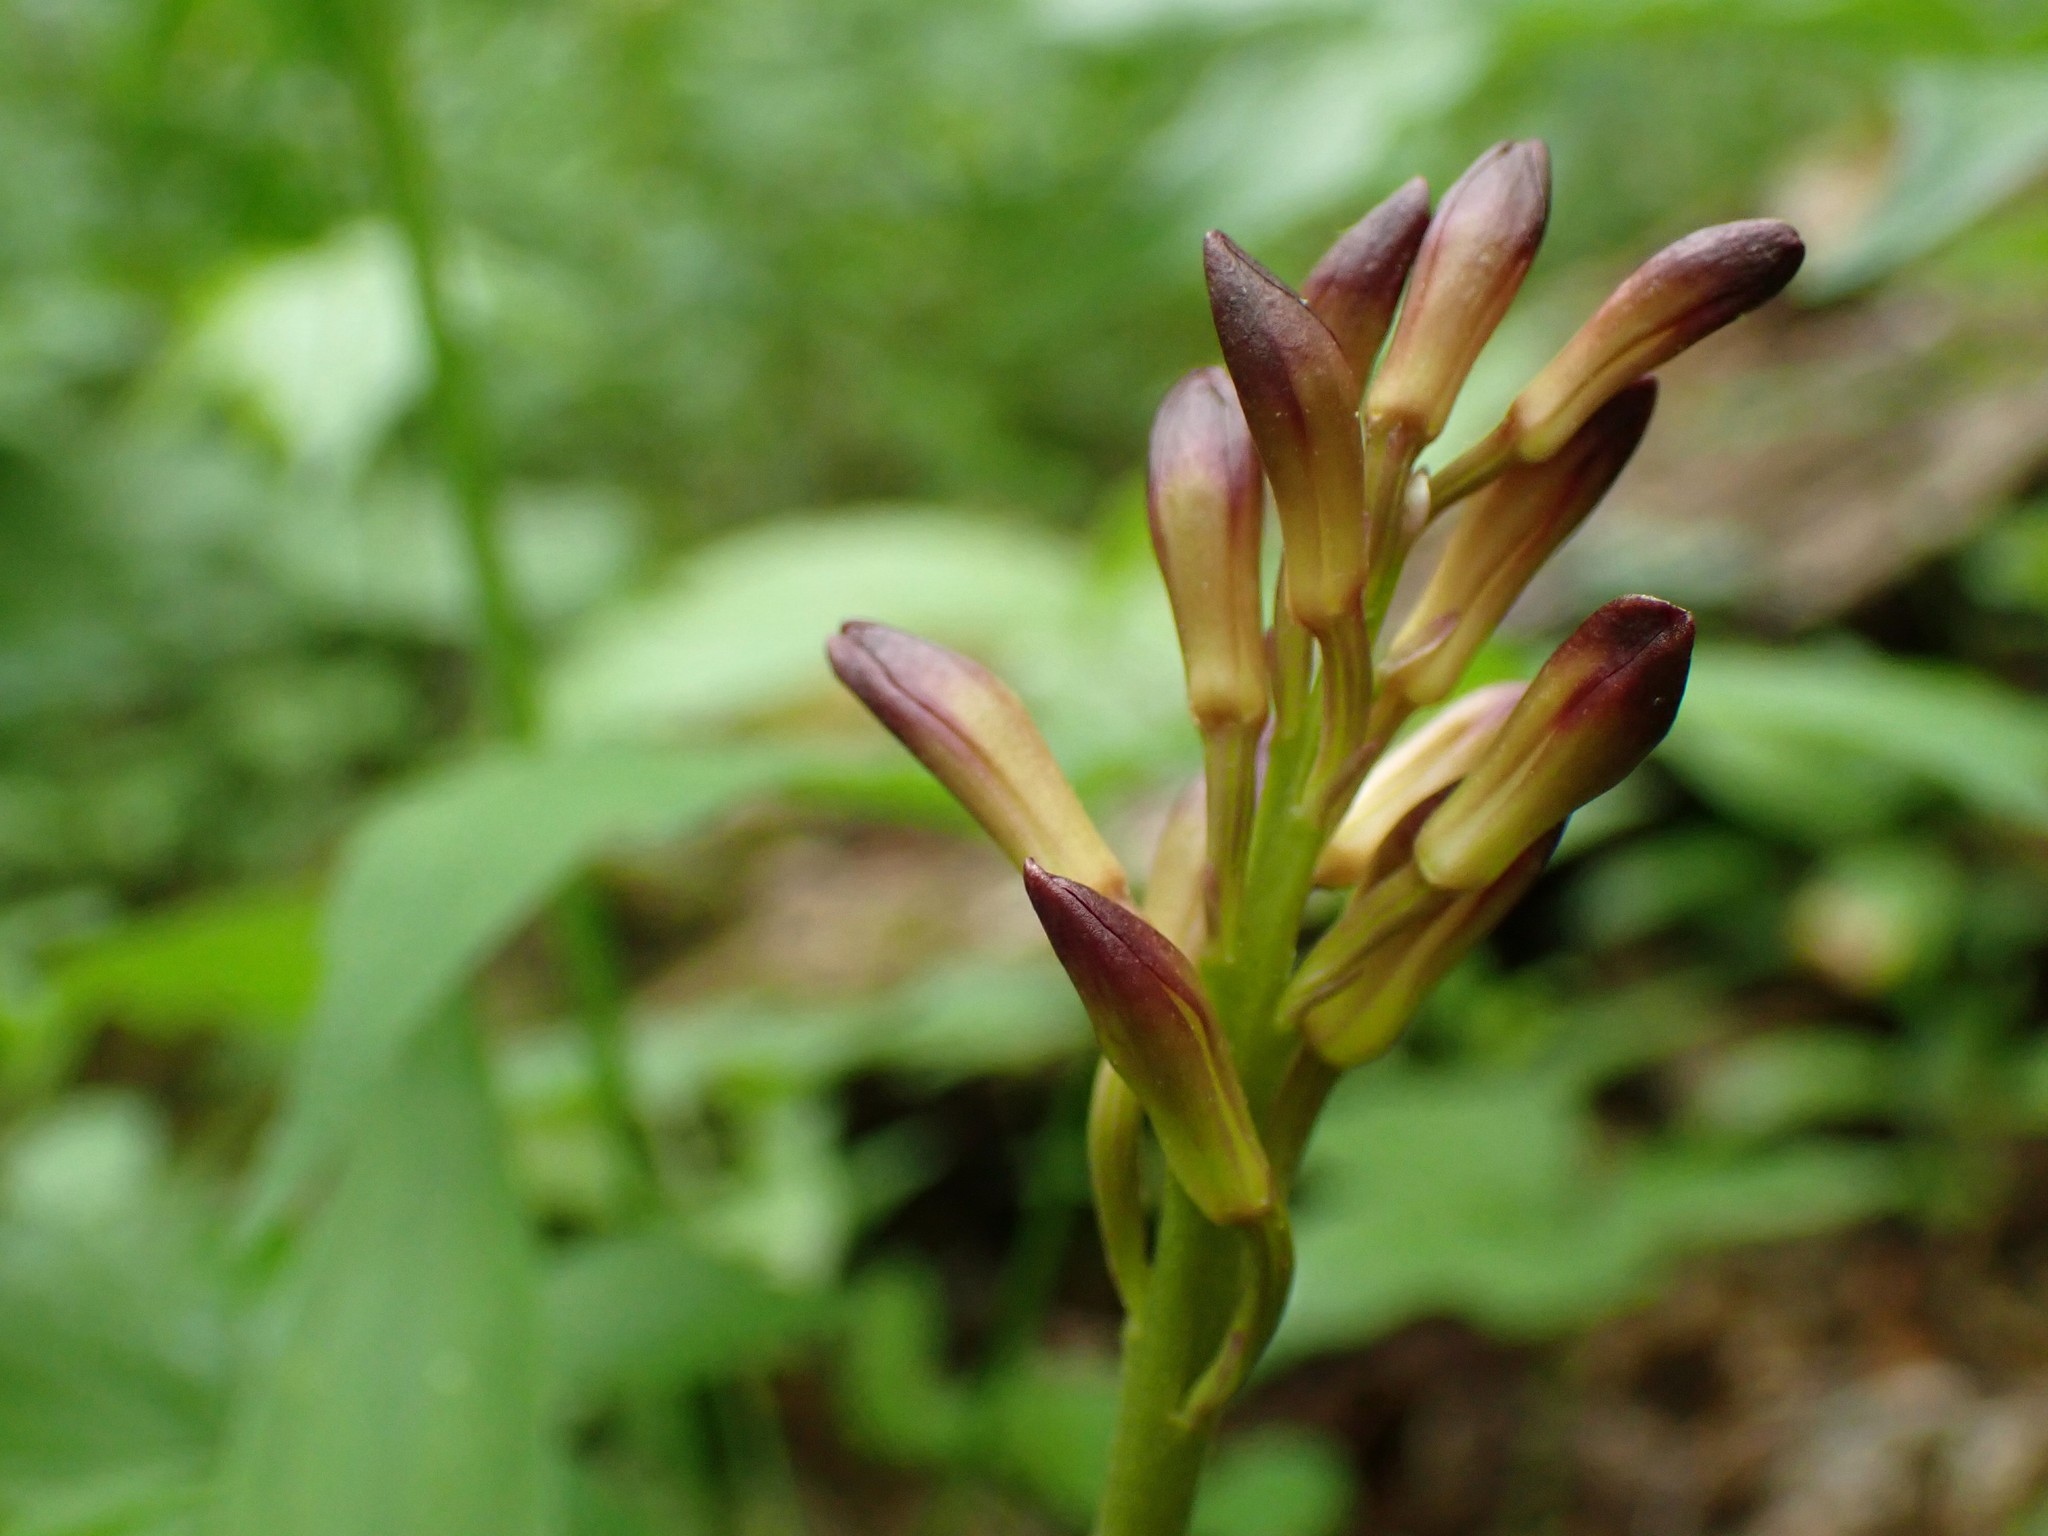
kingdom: Plantae
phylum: Tracheophyta
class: Liliopsida
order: Asparagales
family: Orchidaceae
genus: Aplectrum
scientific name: Aplectrum hyemale
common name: Adam-and-eve
